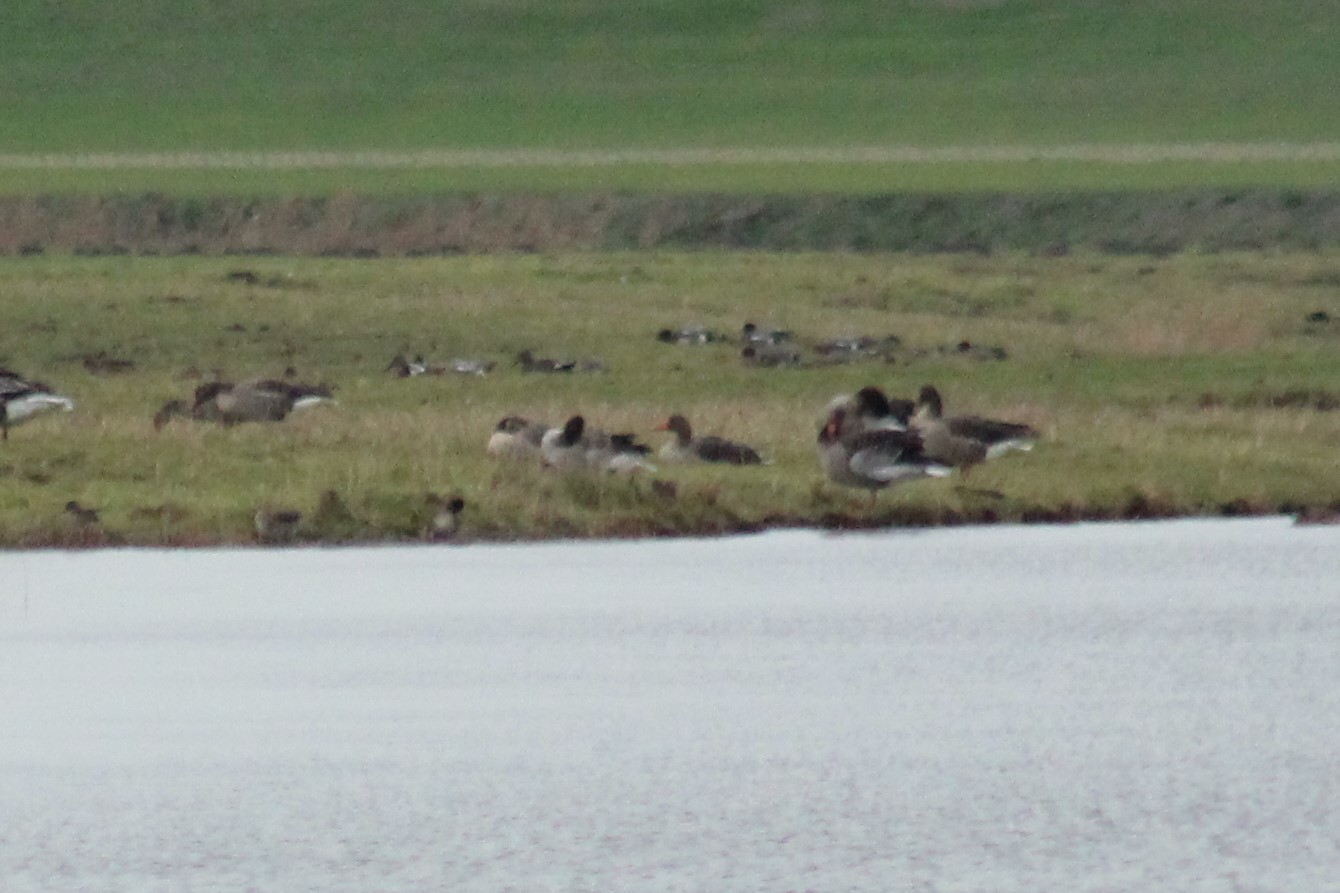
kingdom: Animalia
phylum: Chordata
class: Aves
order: Anseriformes
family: Anatidae
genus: Anser
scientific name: Anser anser
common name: Greylag goose
